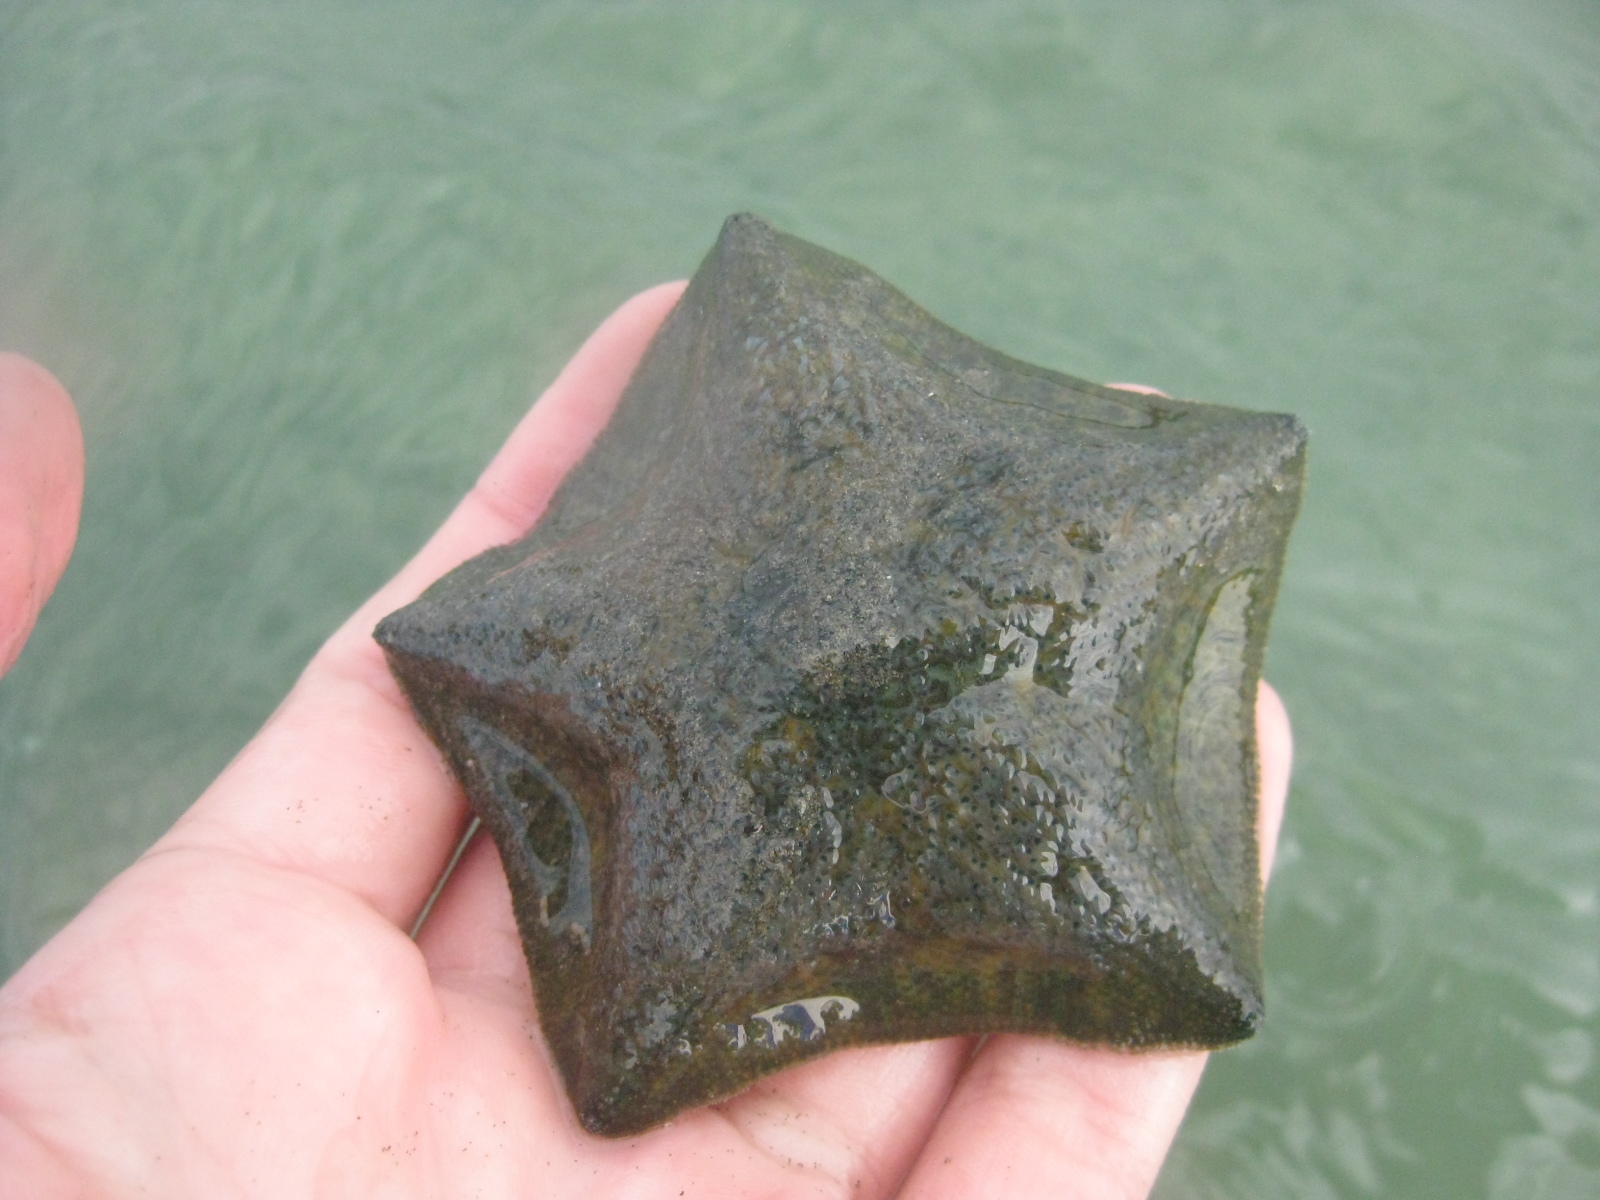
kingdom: Animalia
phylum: Echinodermata
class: Asteroidea
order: Valvatida
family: Asterinidae
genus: Patiriella
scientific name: Patiriella regularis
